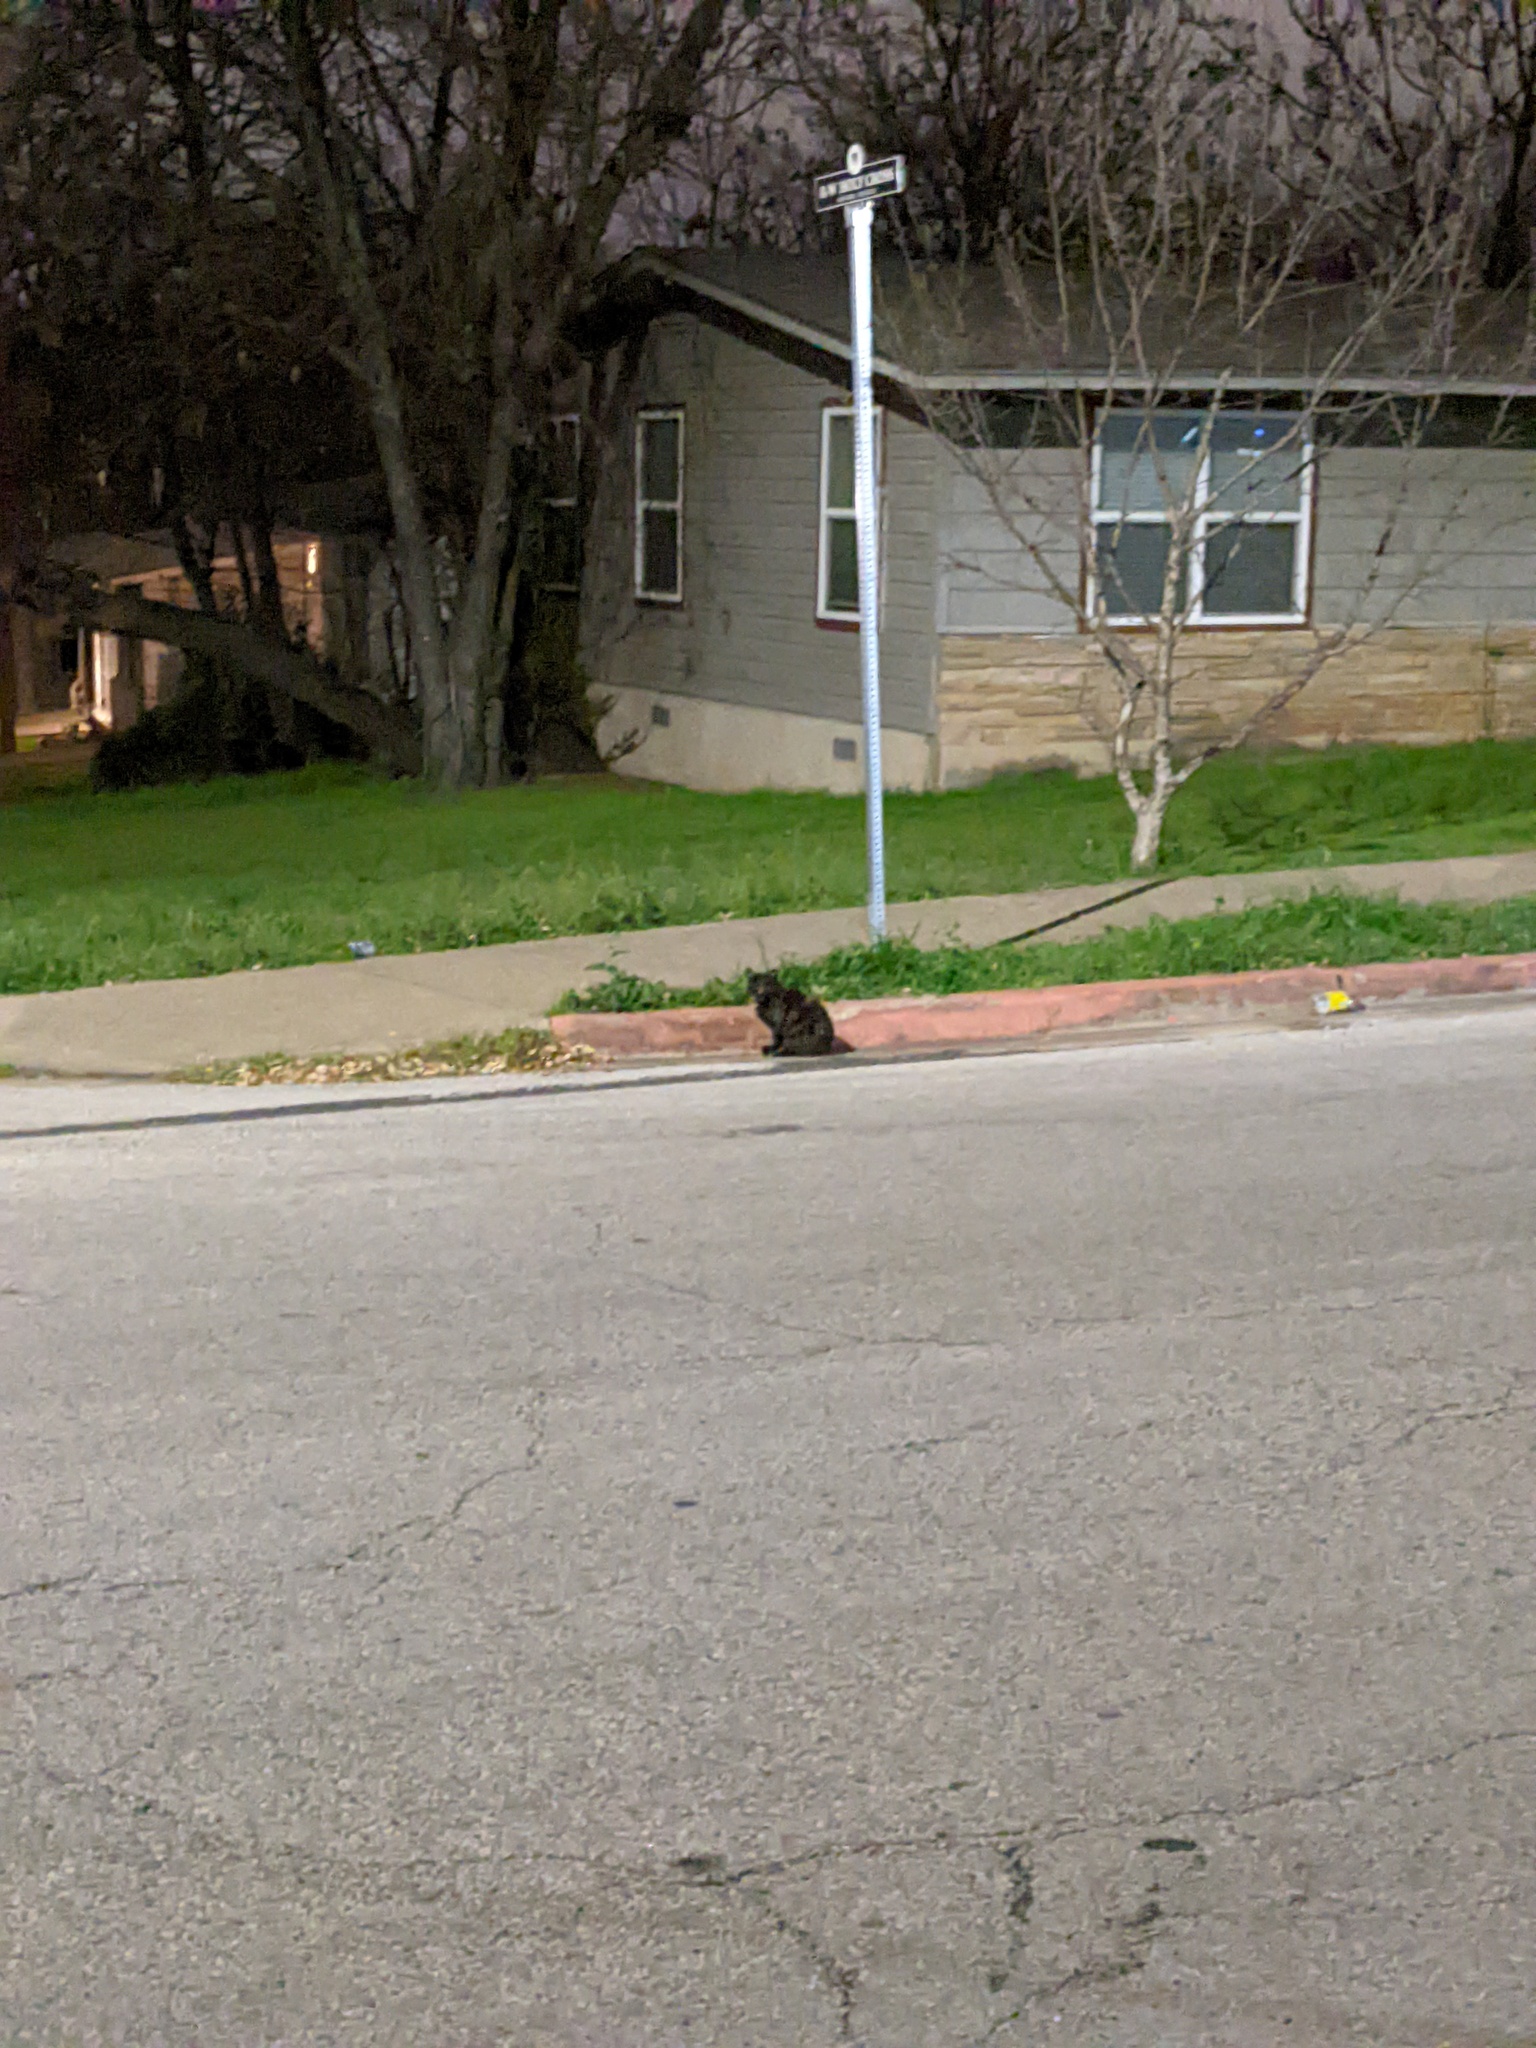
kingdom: Animalia
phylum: Chordata
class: Mammalia
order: Carnivora
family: Felidae
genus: Felis
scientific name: Felis catus
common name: Domestic cat
